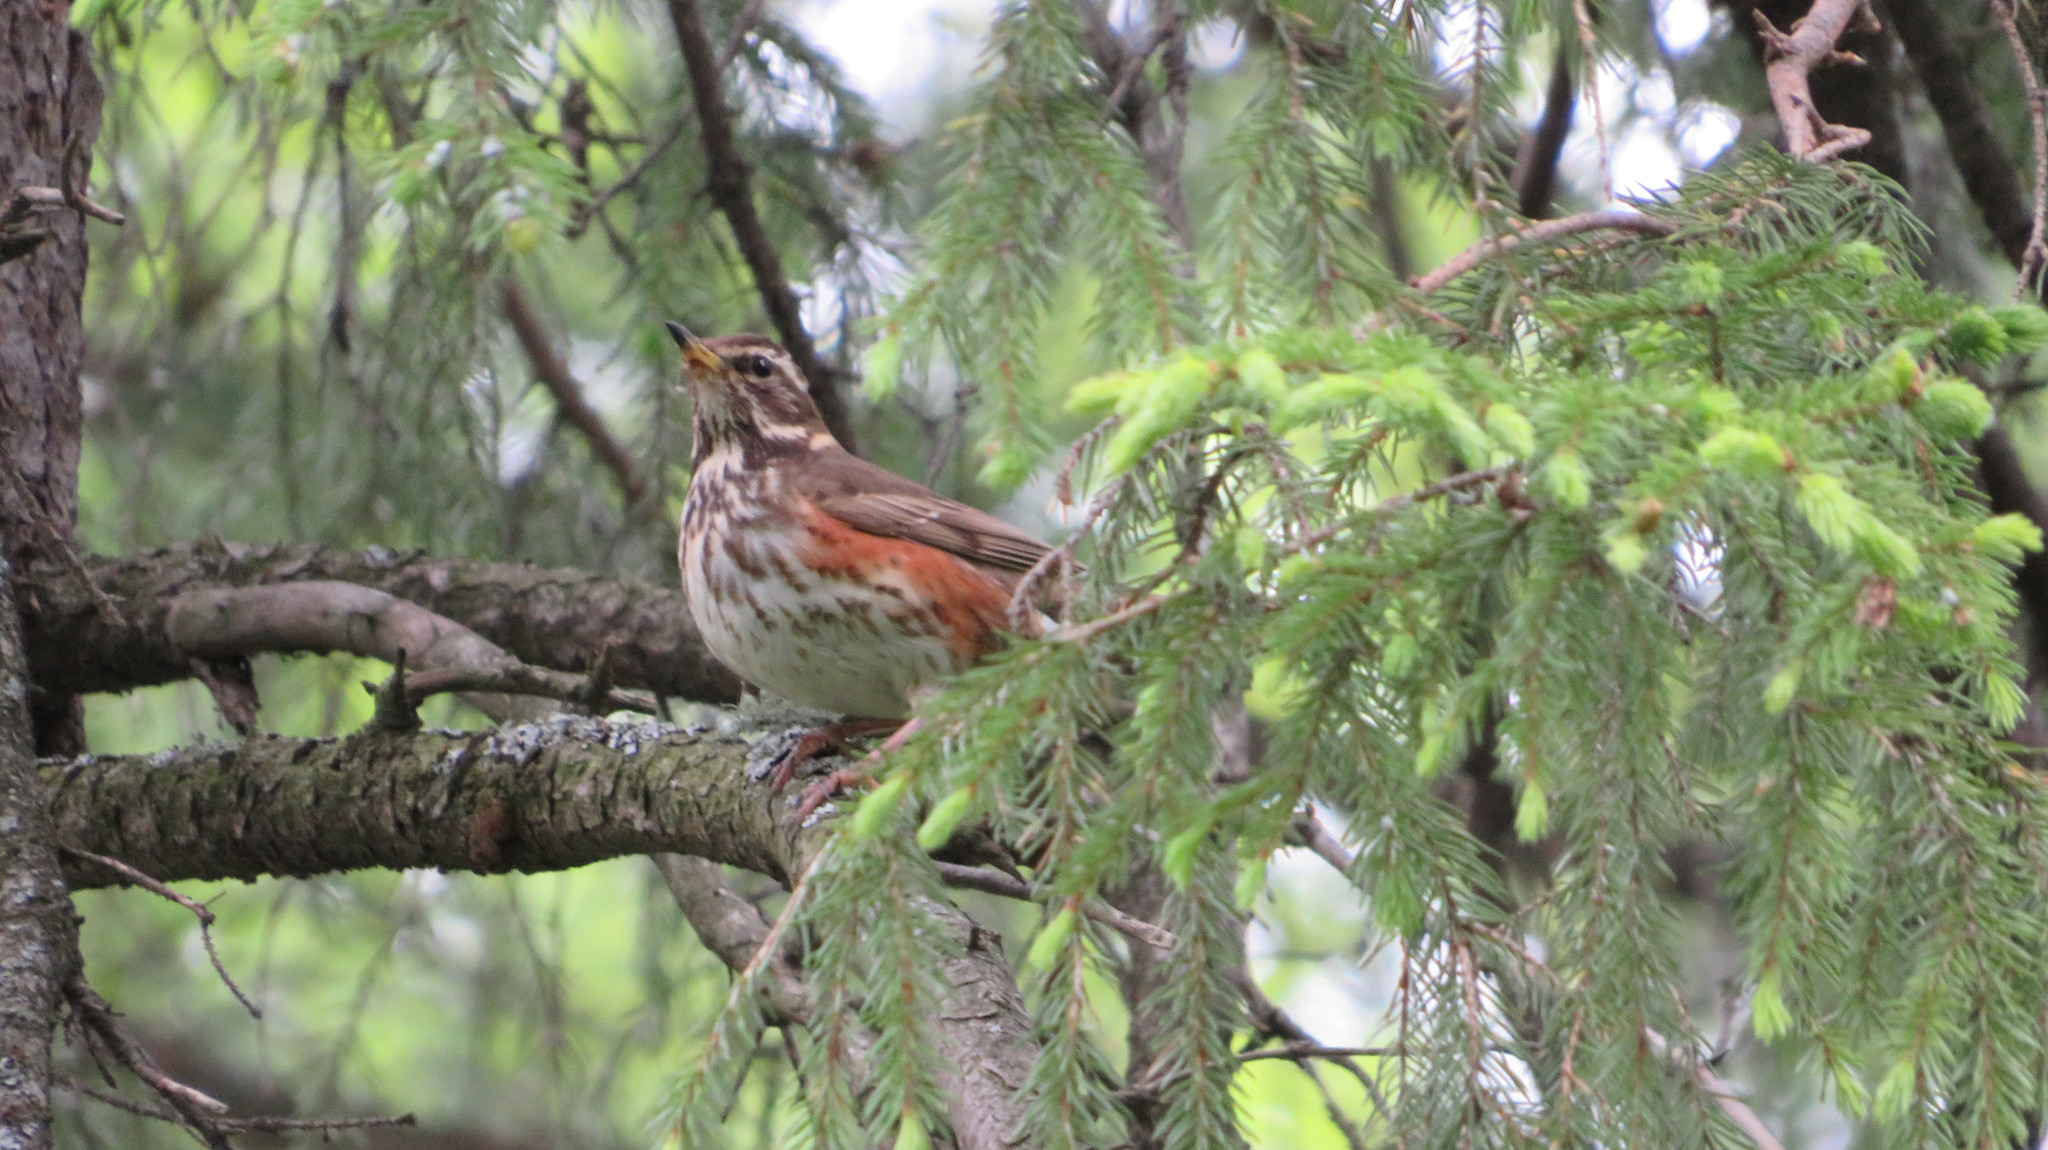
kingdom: Animalia
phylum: Chordata
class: Aves
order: Passeriformes
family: Turdidae
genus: Turdus
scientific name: Turdus iliacus
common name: Redwing
